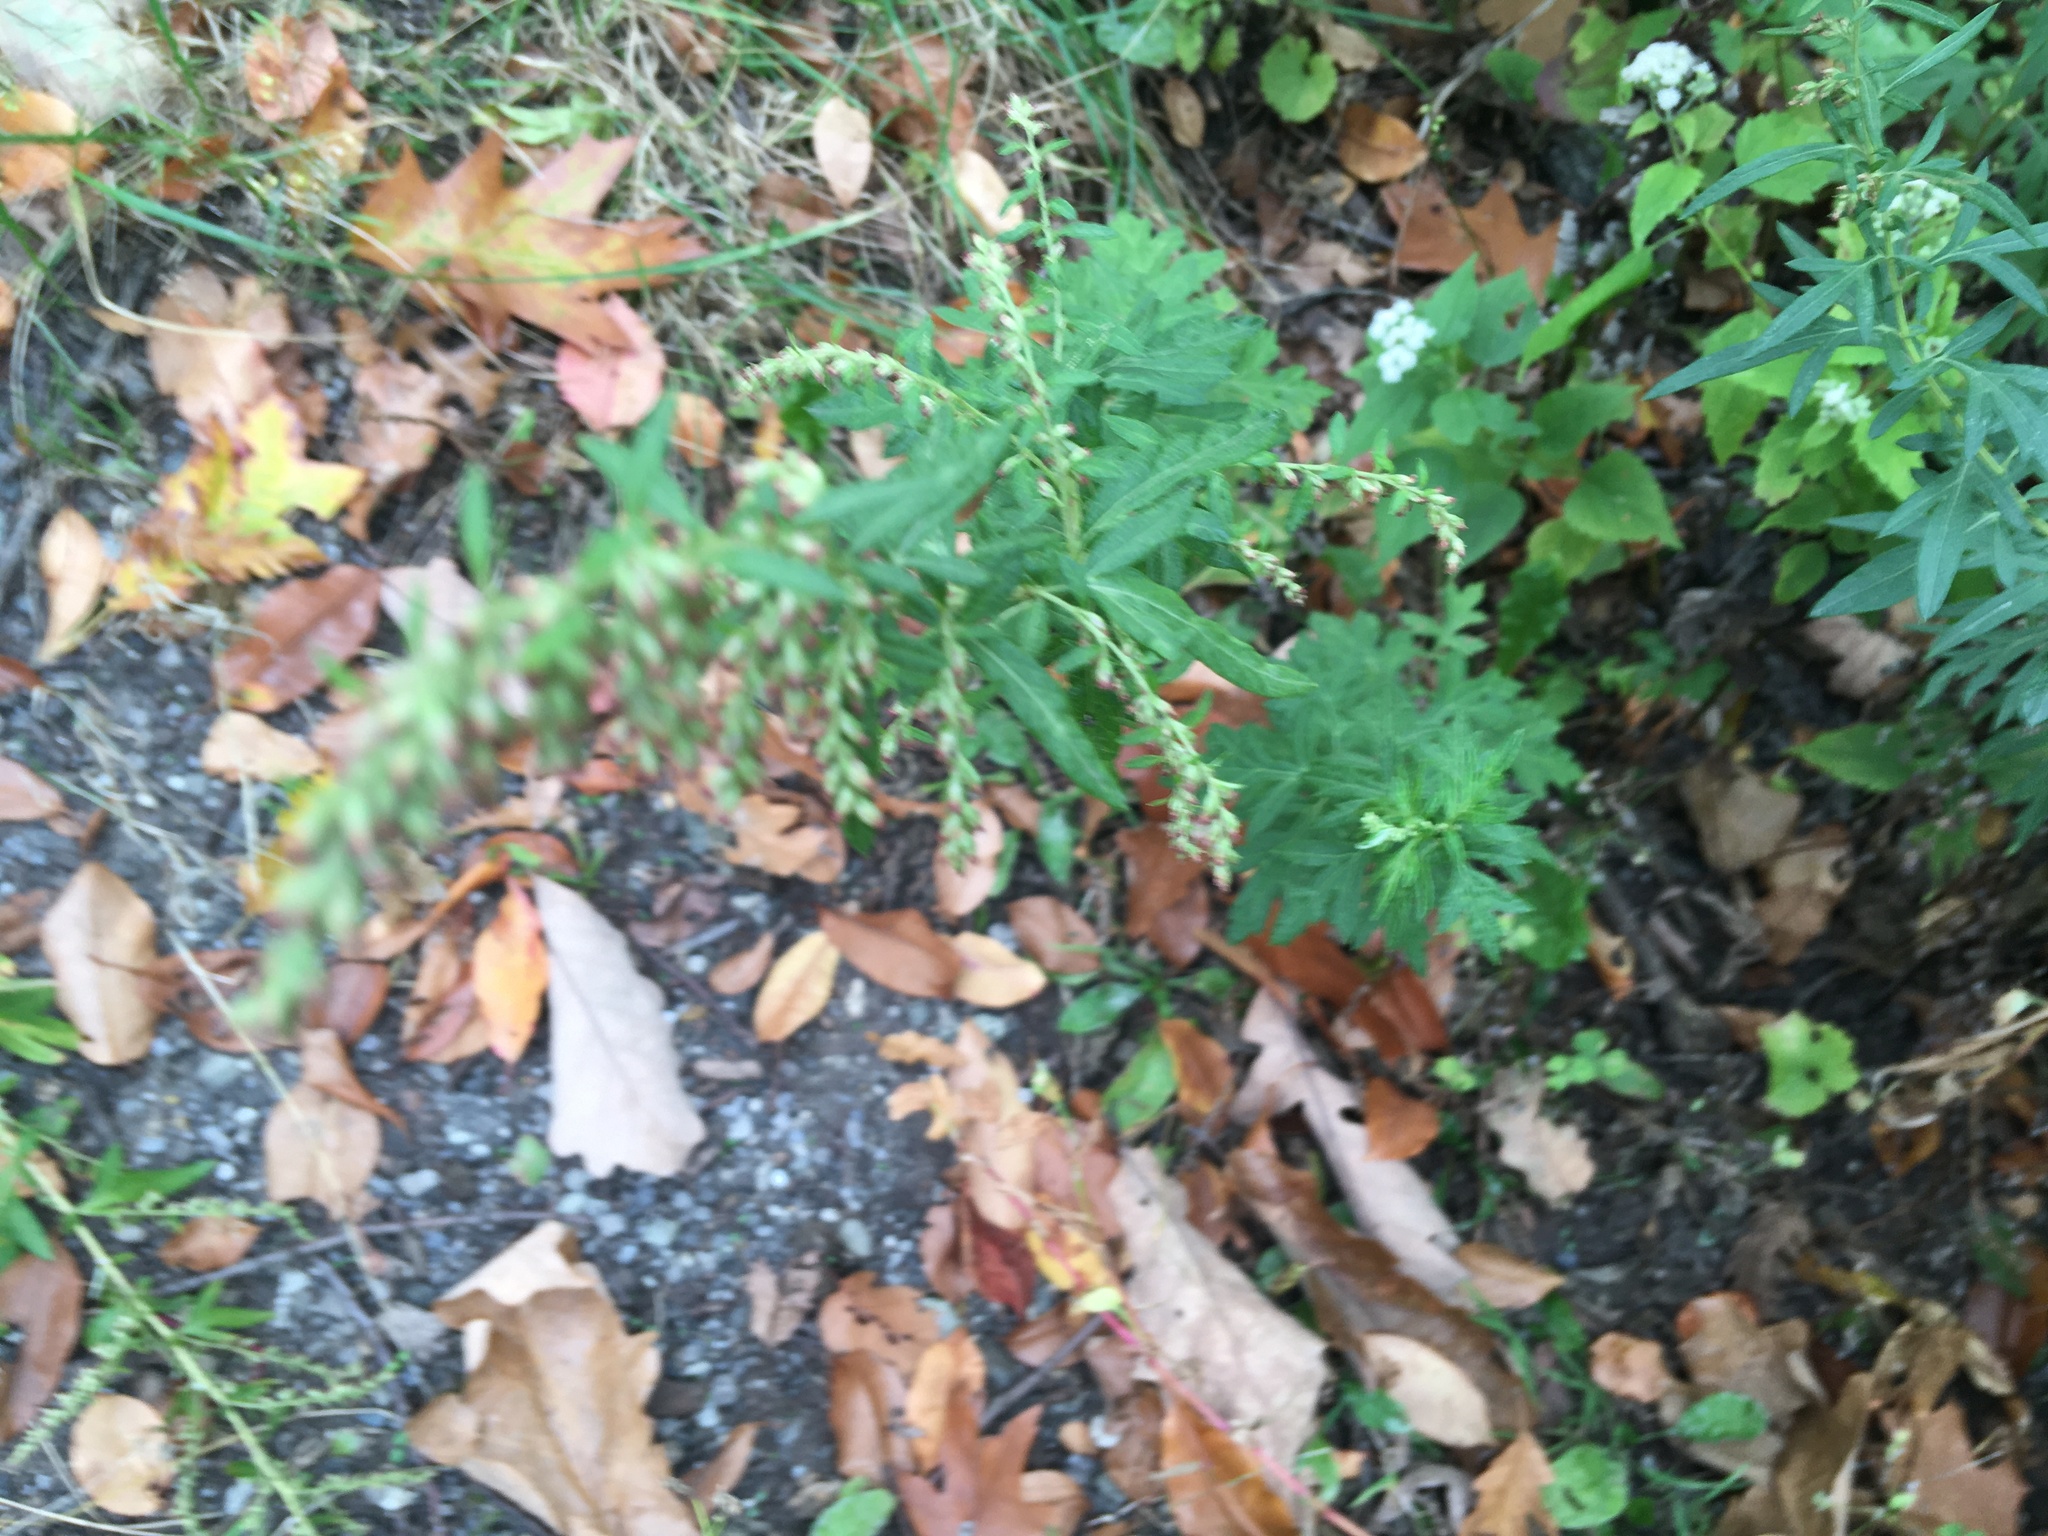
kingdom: Plantae
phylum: Tracheophyta
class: Magnoliopsida
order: Asterales
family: Asteraceae
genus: Artemisia
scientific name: Artemisia vulgaris
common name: Mugwort
